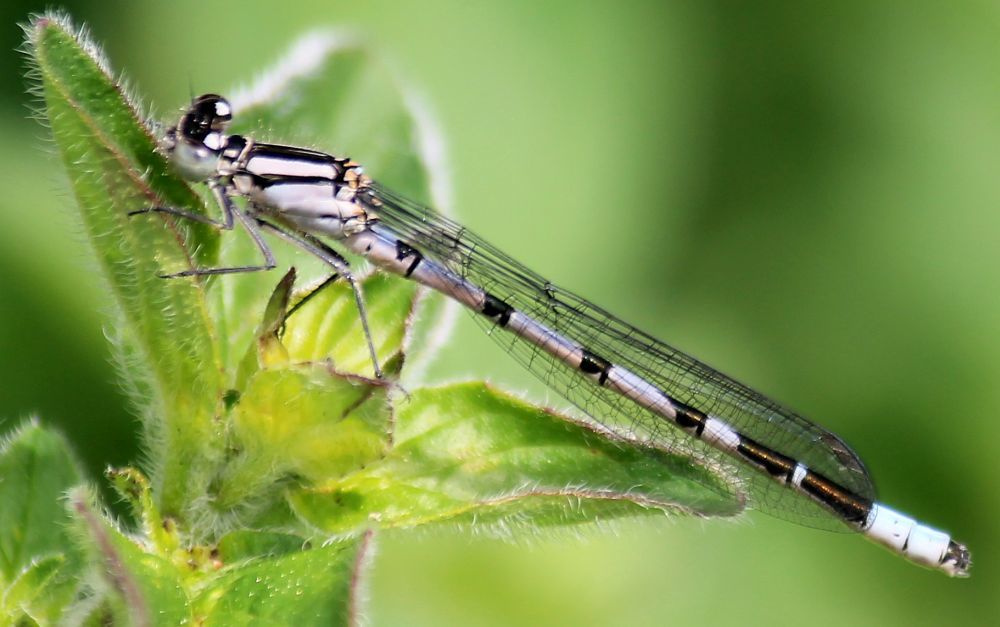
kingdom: Animalia
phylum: Arthropoda
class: Insecta
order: Odonata
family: Coenagrionidae
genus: Enallagma
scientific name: Enallagma cyathigerum
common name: Common blue damselfly
